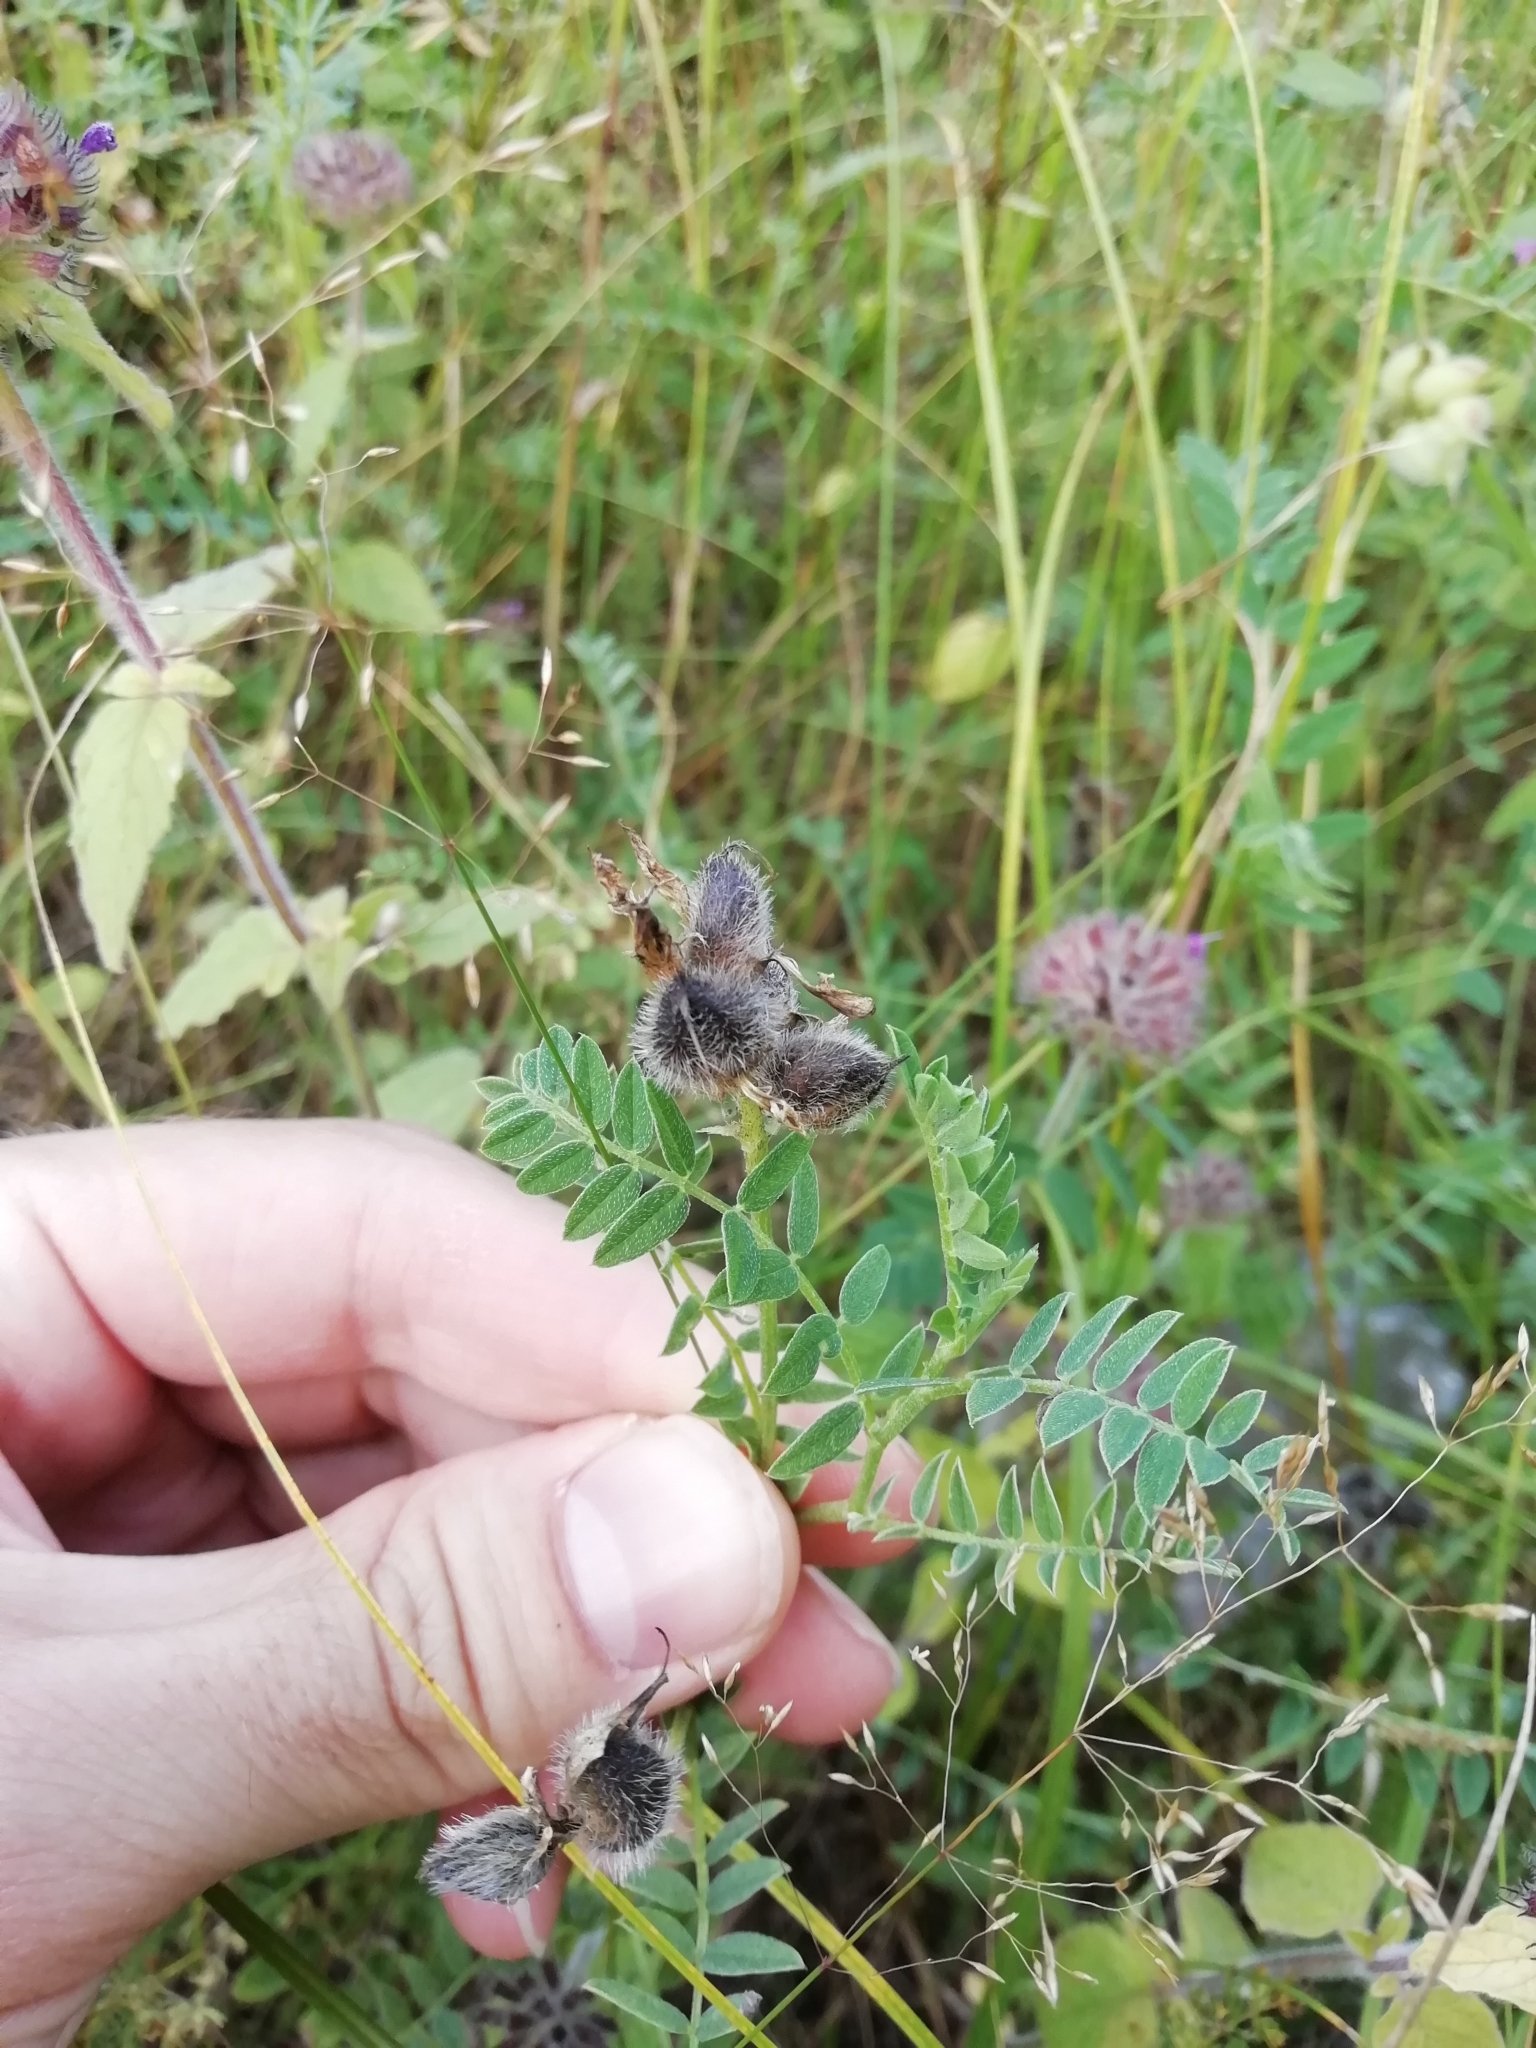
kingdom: Plantae
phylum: Tracheophyta
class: Magnoliopsida
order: Fabales
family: Fabaceae
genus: Astragalus
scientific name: Astragalus cicer
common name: Chick-pea milk-vetch
